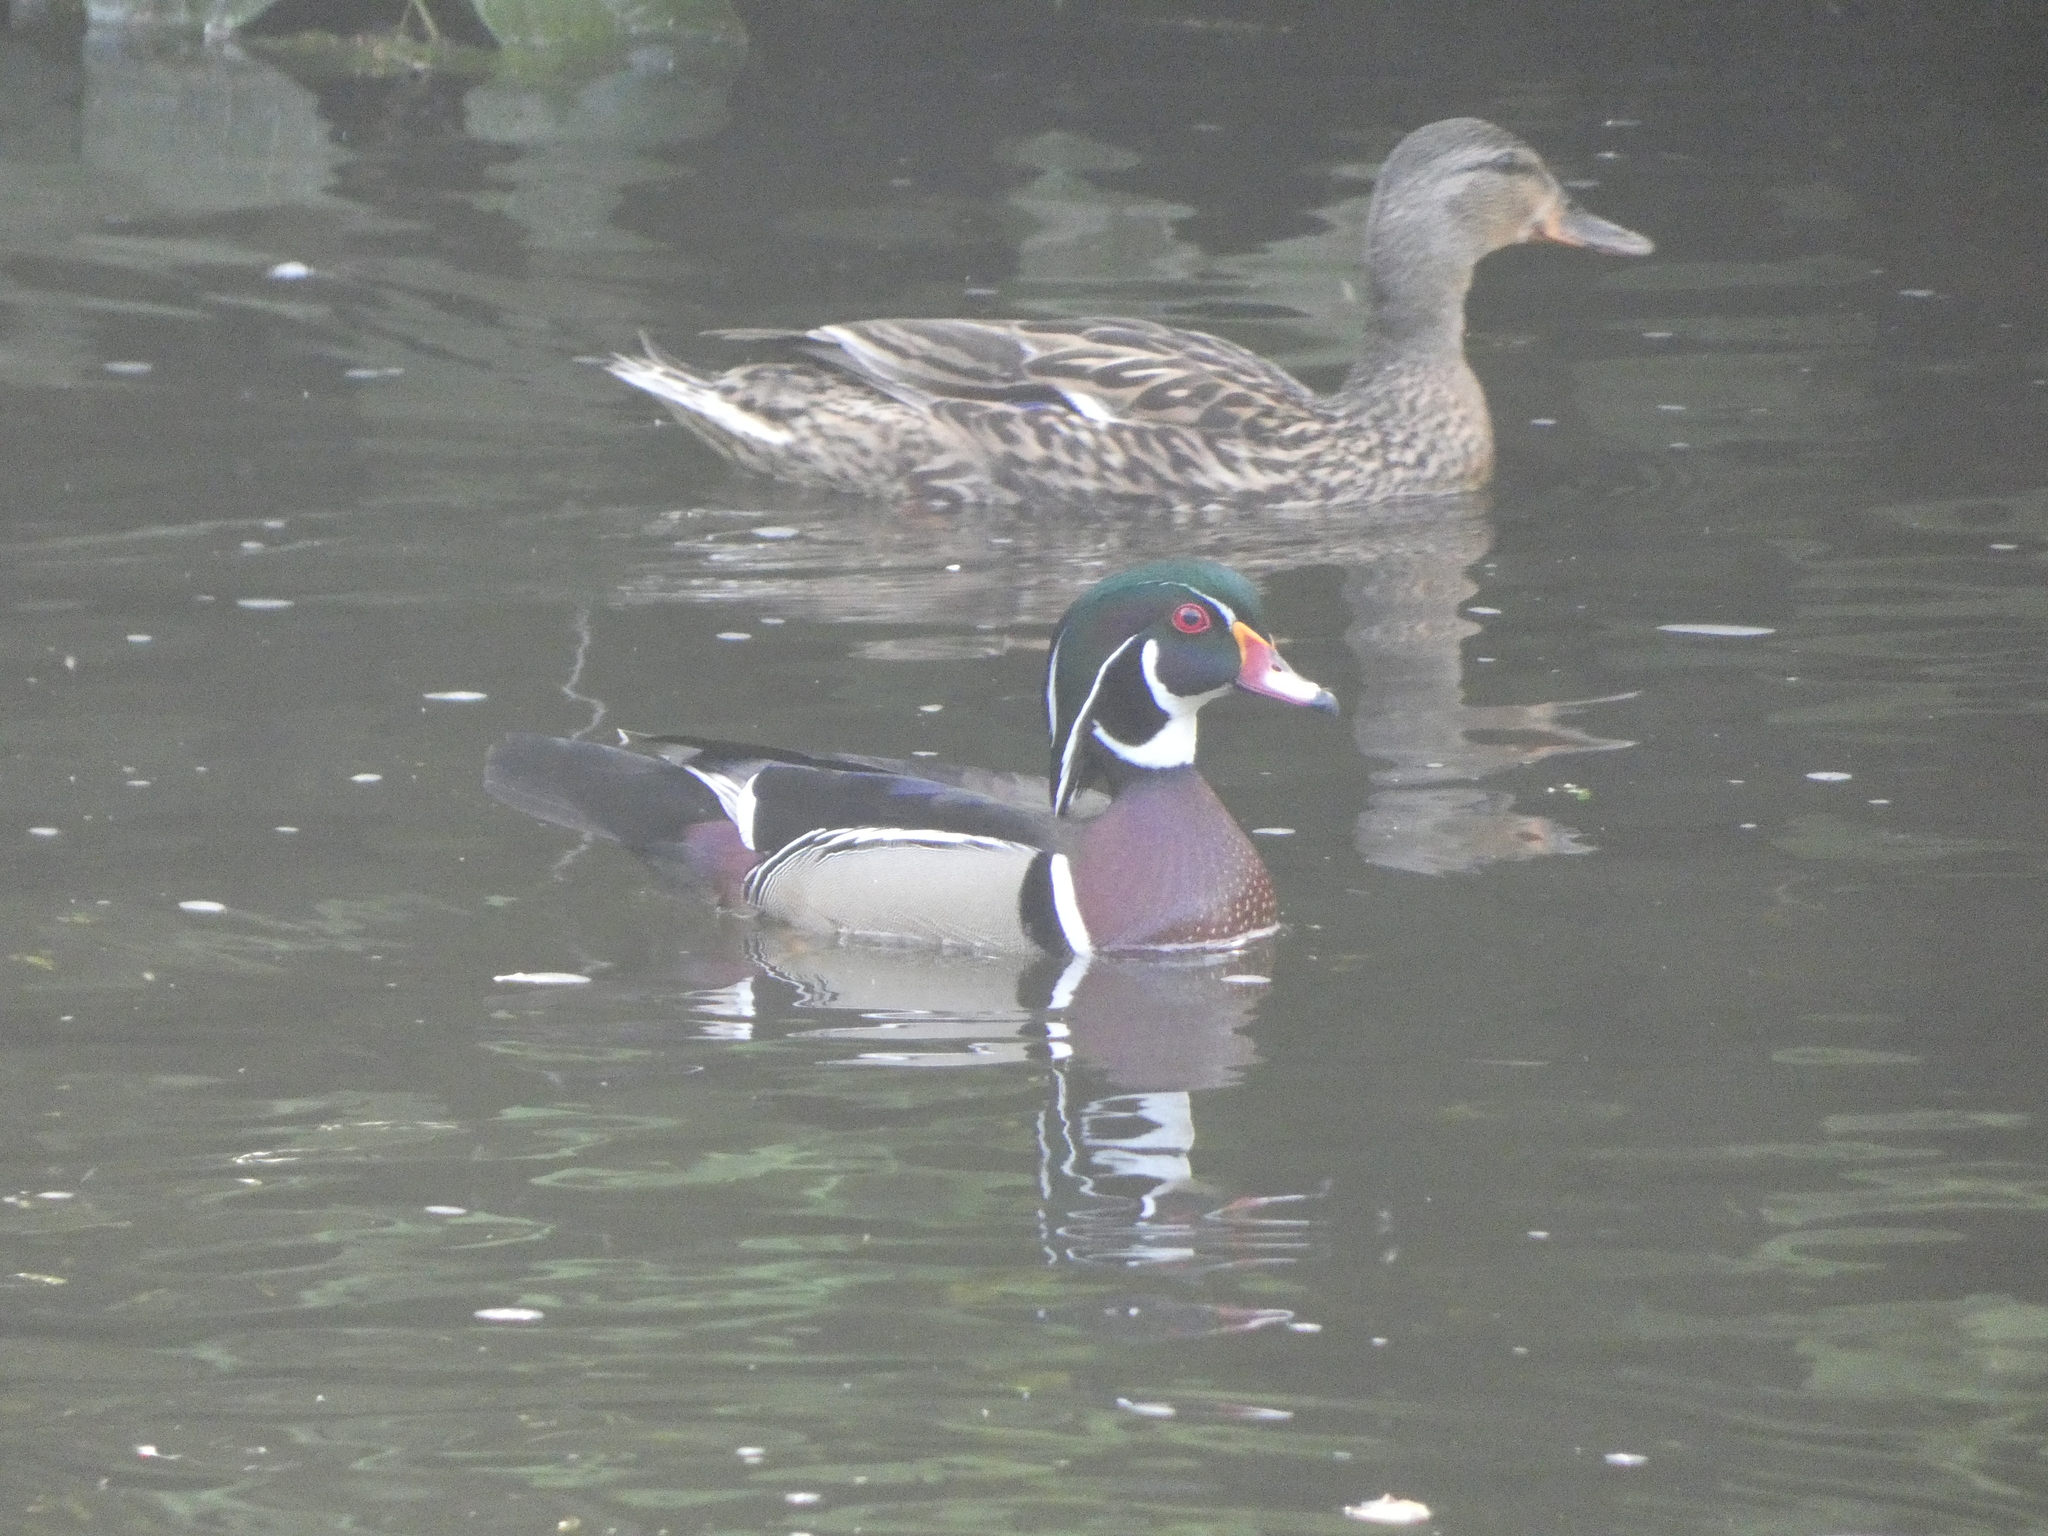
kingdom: Animalia
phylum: Chordata
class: Aves
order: Anseriformes
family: Anatidae
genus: Aix
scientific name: Aix sponsa
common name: Wood duck
